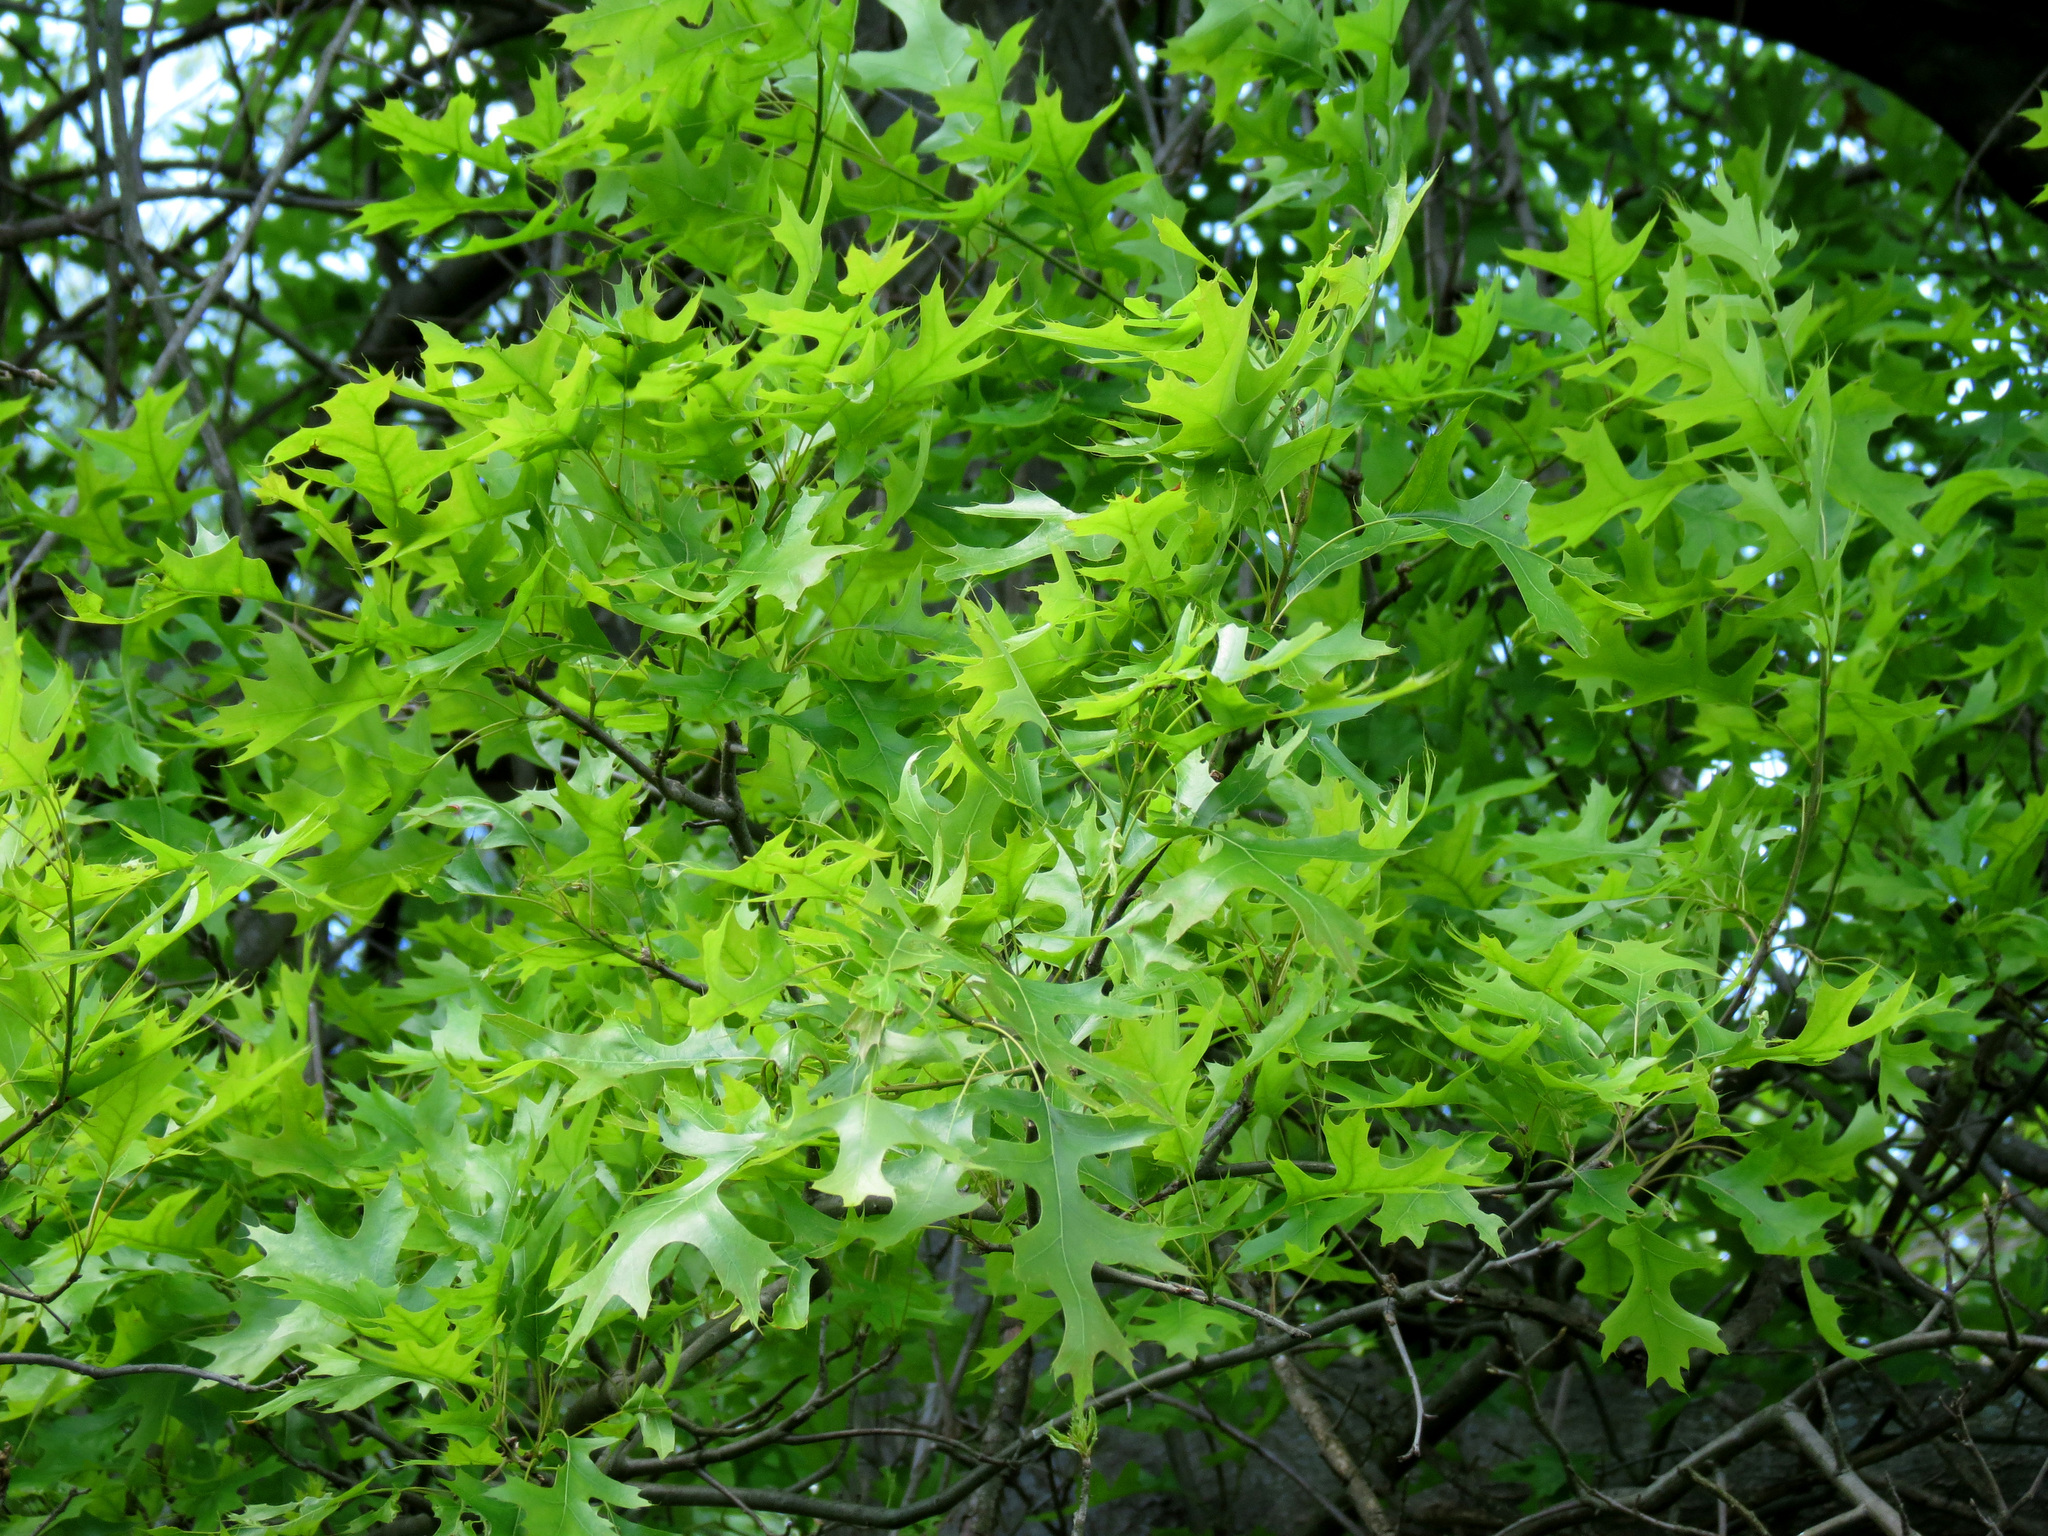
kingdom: Plantae
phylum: Tracheophyta
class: Magnoliopsida
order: Fagales
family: Fagaceae
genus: Quercus
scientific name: Quercus palustris
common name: Pin oak
